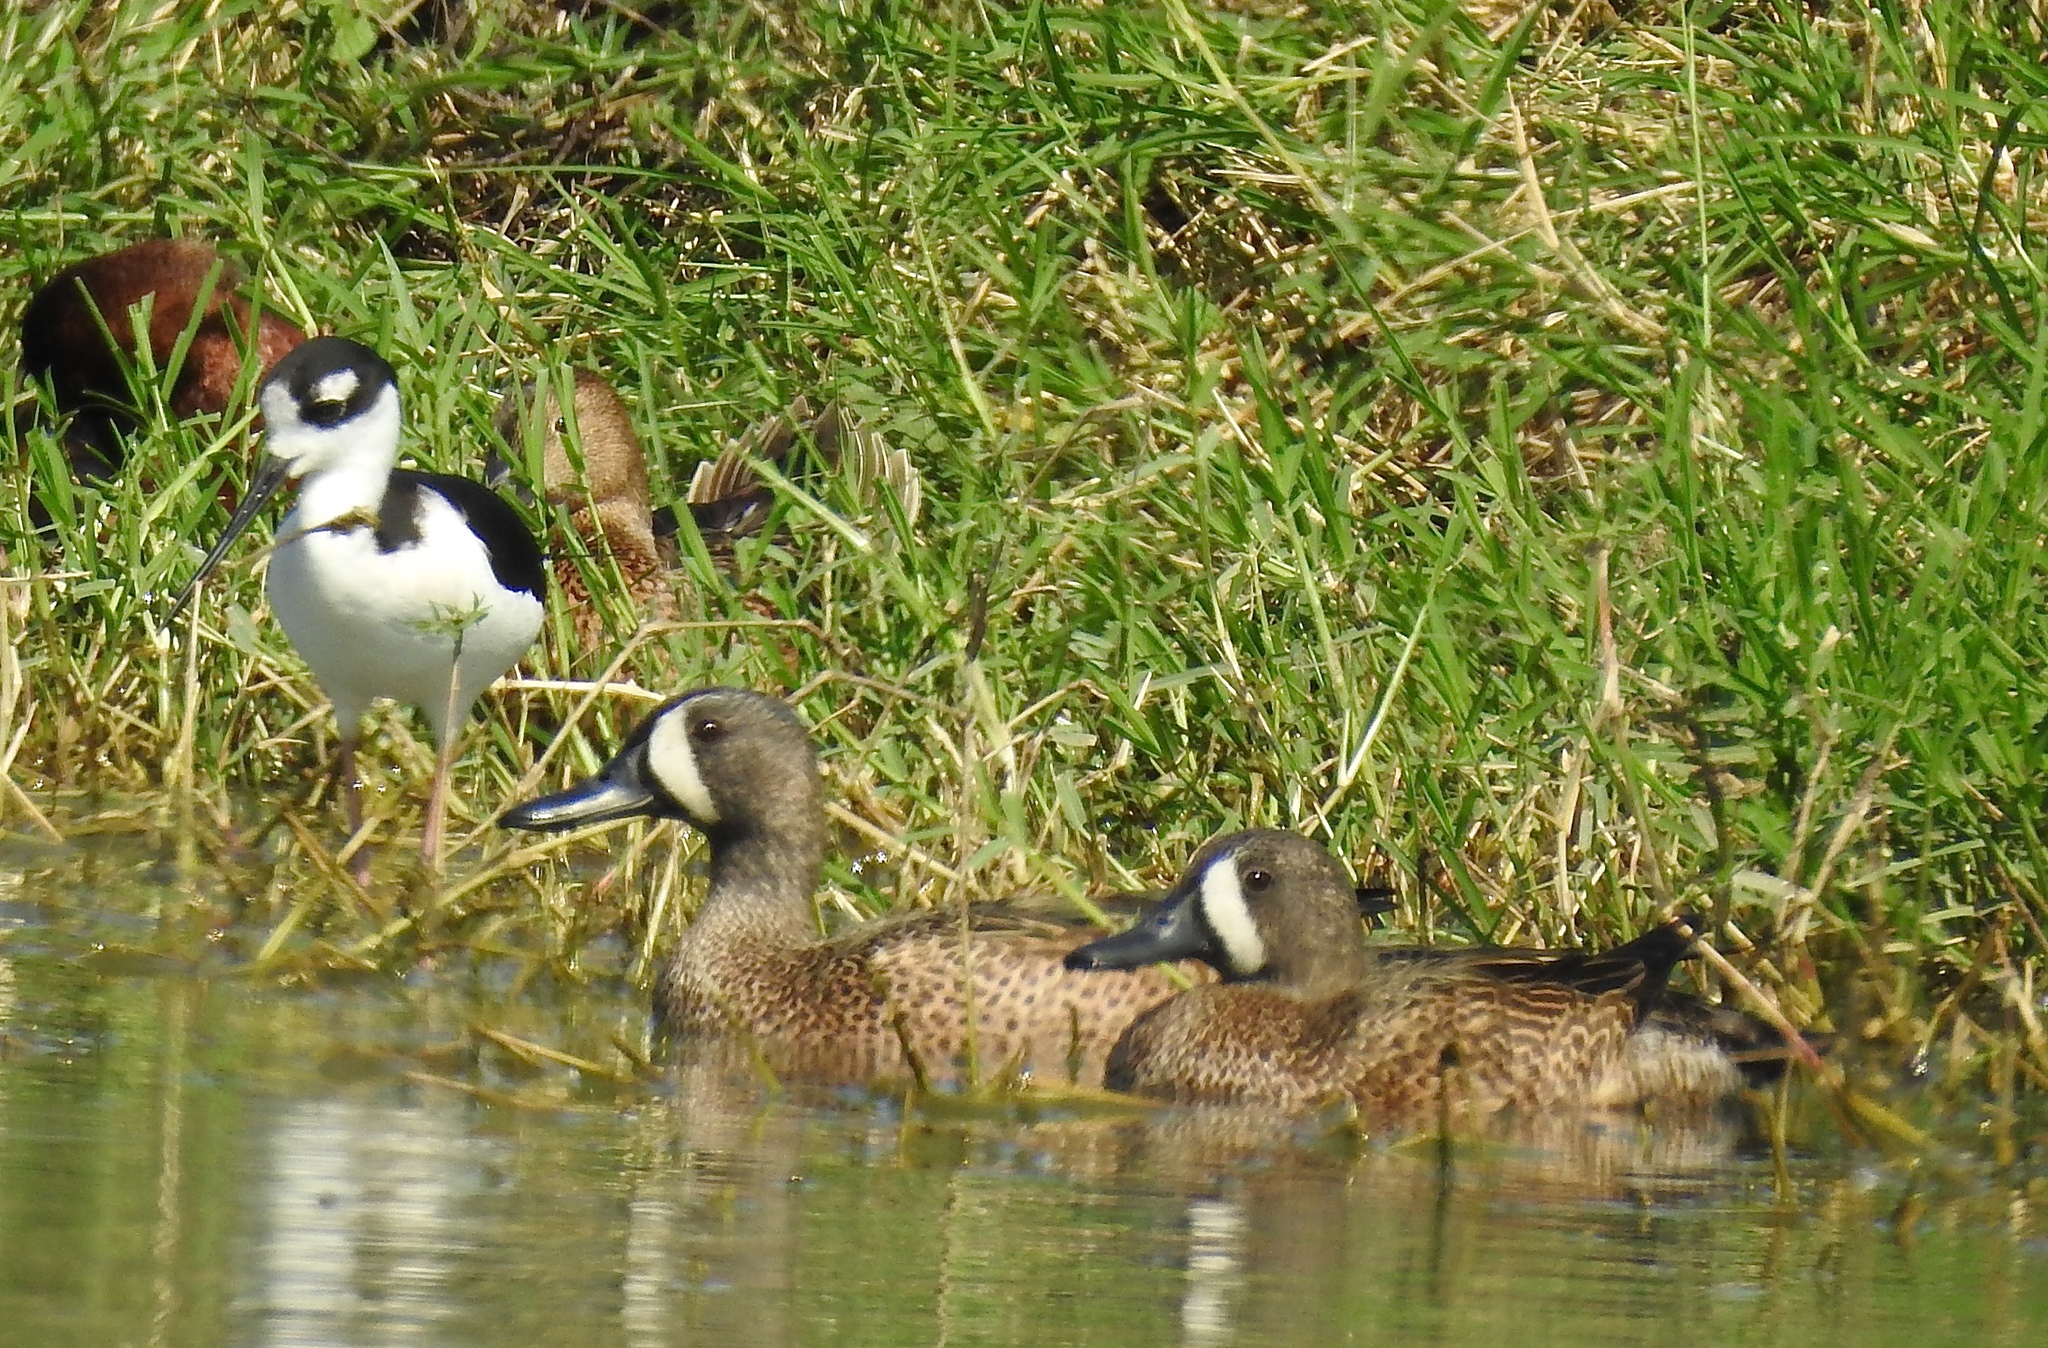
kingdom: Animalia
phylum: Chordata
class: Aves
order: Anseriformes
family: Anatidae
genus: Spatula
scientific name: Spatula discors
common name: Blue-winged teal
